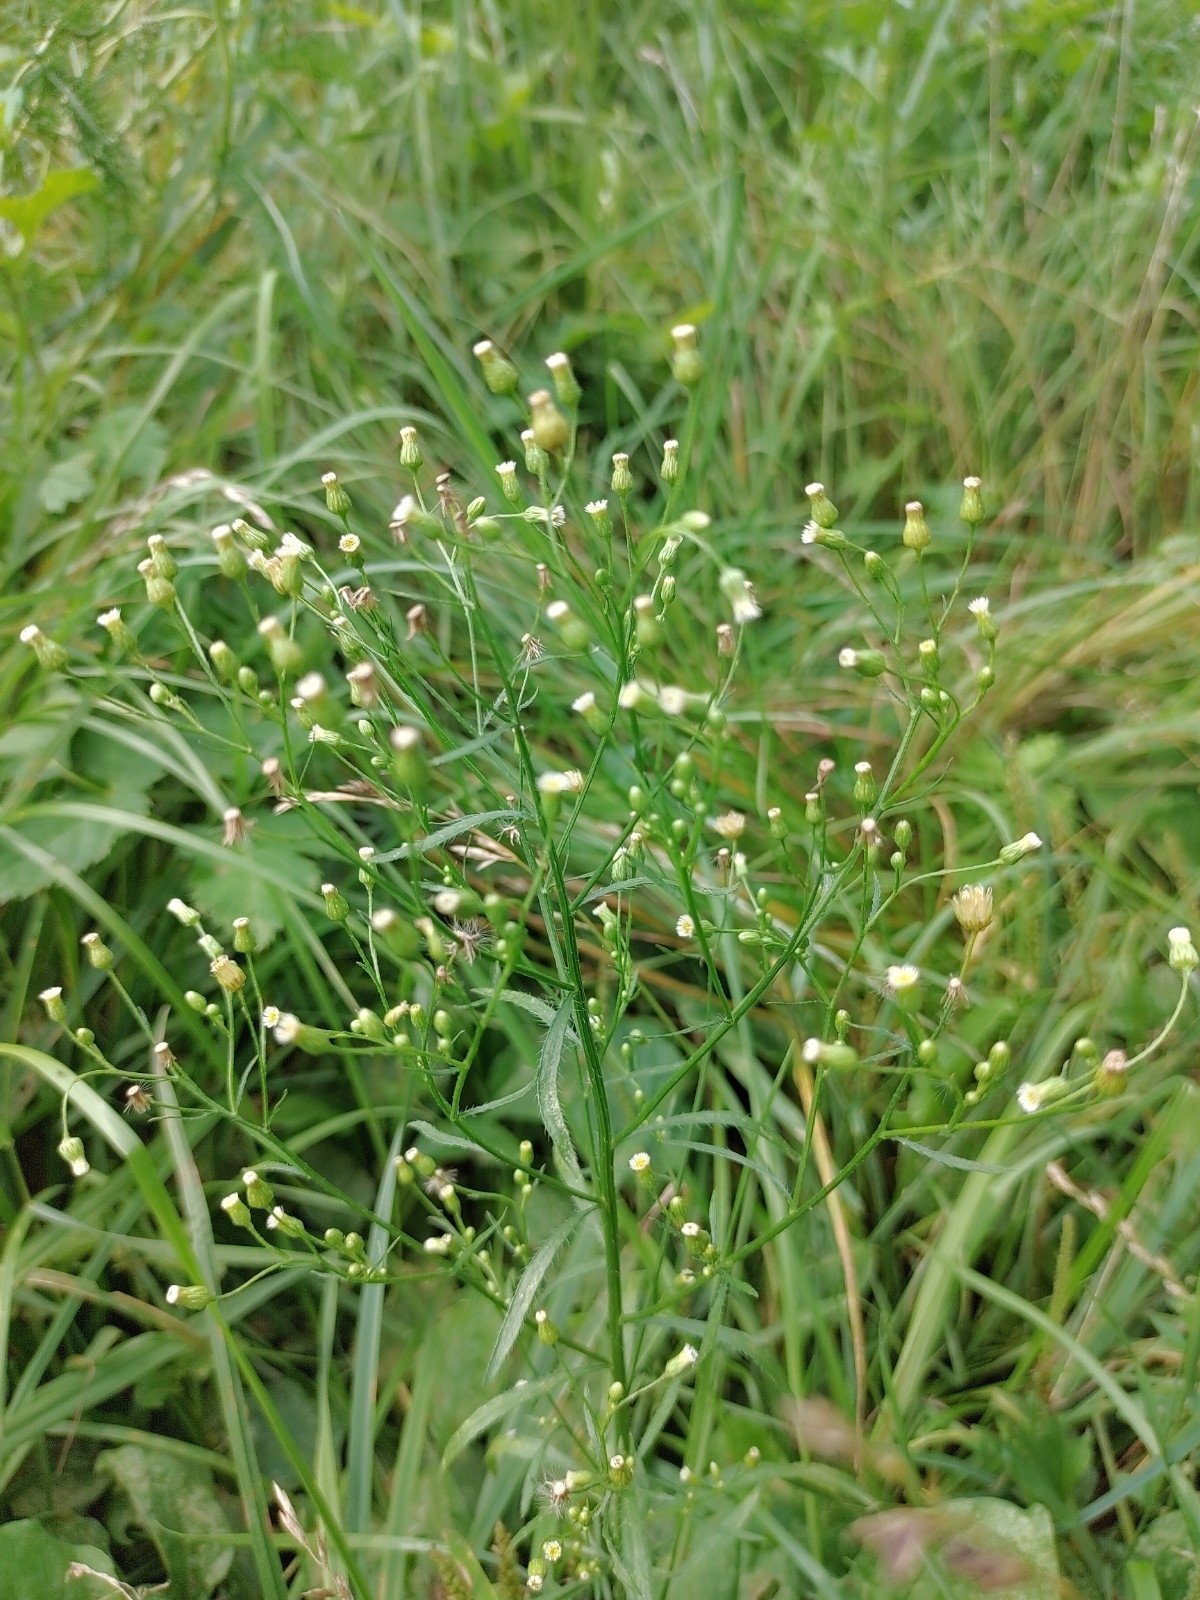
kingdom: Plantae
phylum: Tracheophyta
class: Magnoliopsida
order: Asterales
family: Asteraceae
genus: Erigeron
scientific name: Erigeron canadensis
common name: Canadian fleabane
